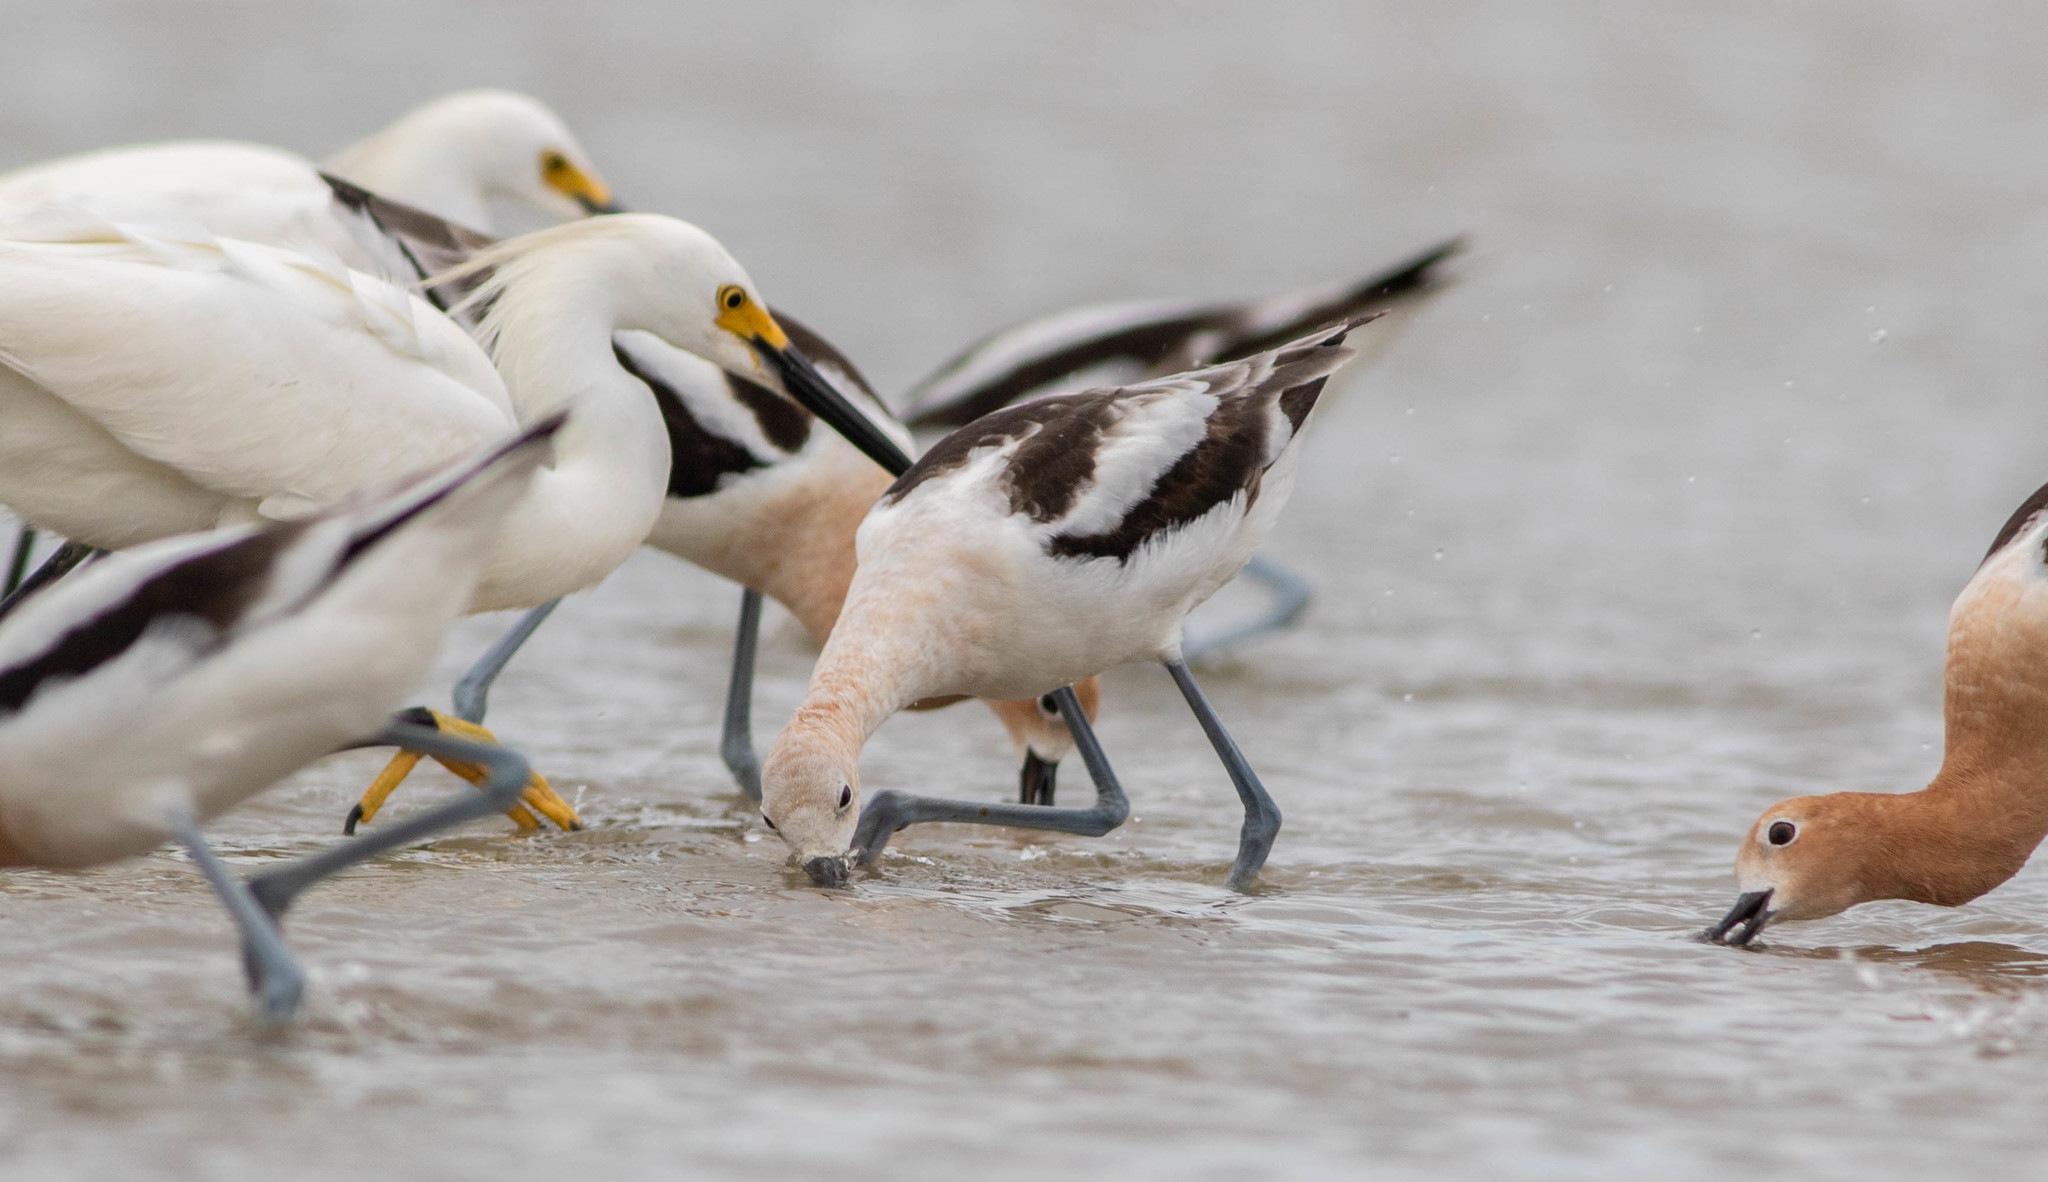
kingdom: Animalia
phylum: Chordata
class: Aves
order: Charadriiformes
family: Recurvirostridae
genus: Recurvirostra
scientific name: Recurvirostra americana
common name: American avocet
